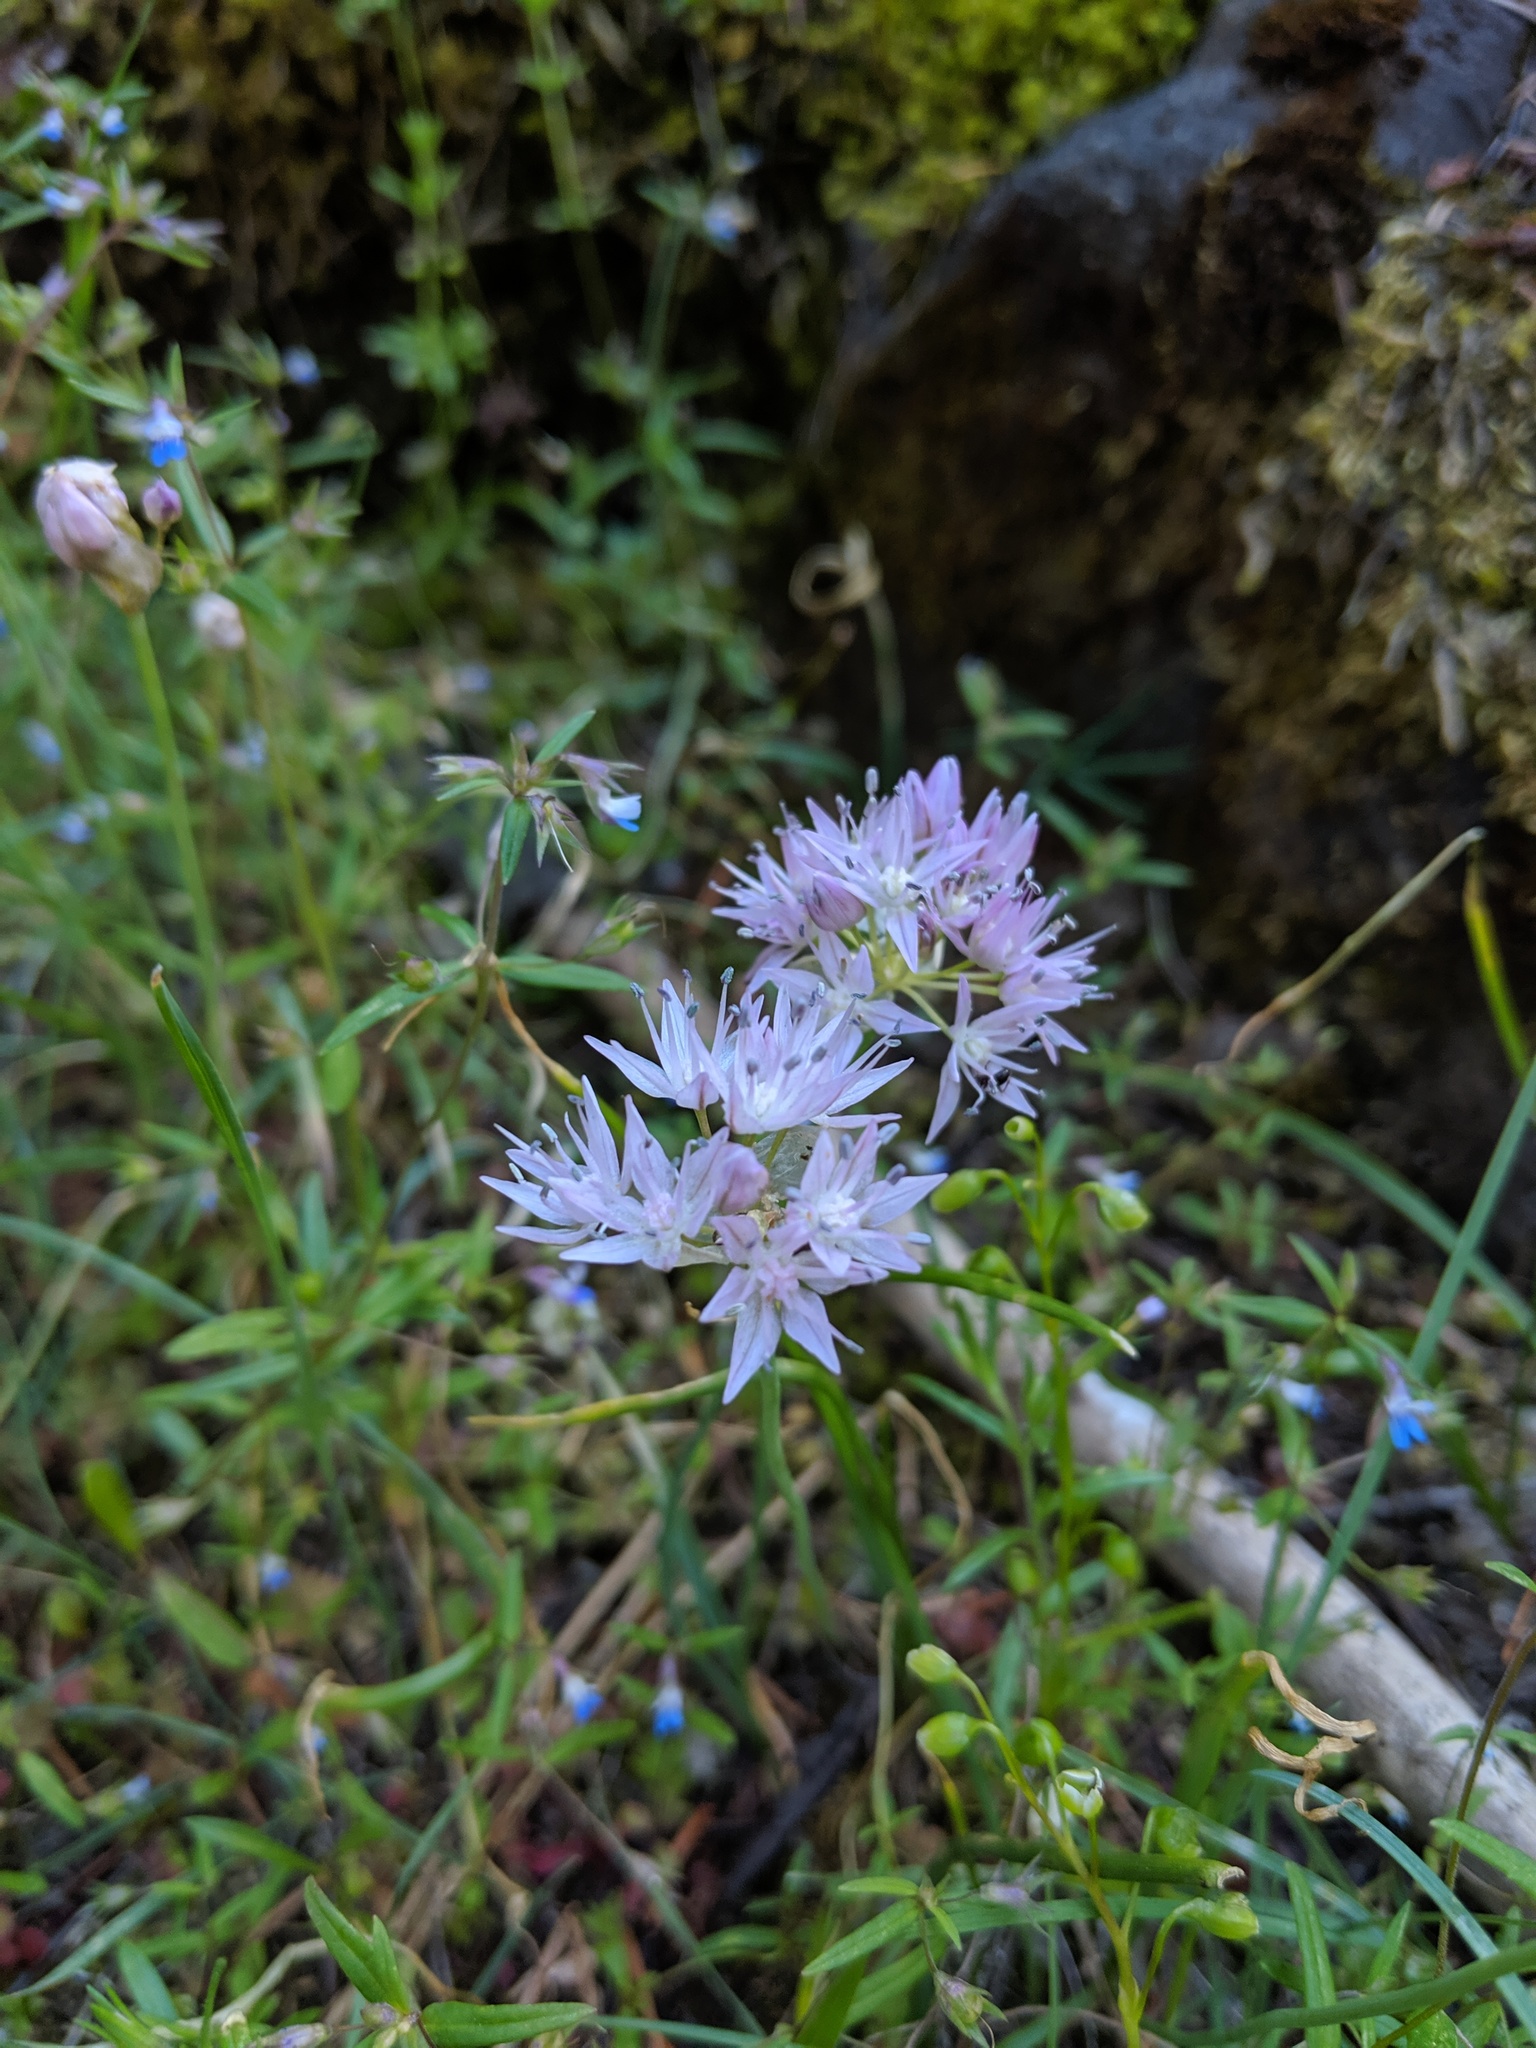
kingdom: Plantae
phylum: Tracheophyta
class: Liliopsida
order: Asparagales
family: Amaryllidaceae
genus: Allium
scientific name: Allium nevii
